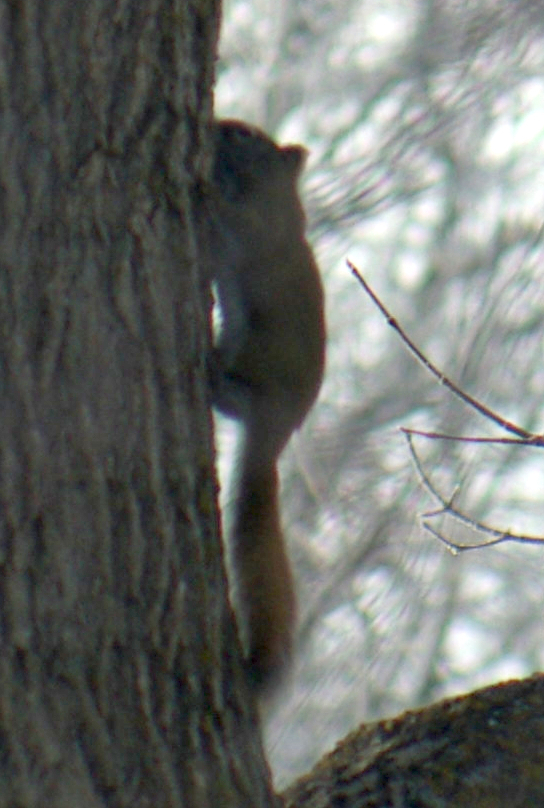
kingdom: Animalia
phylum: Chordata
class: Mammalia
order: Rodentia
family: Sciuridae
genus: Tamiasciurus
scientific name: Tamiasciurus hudsonicus
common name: Red squirrel
